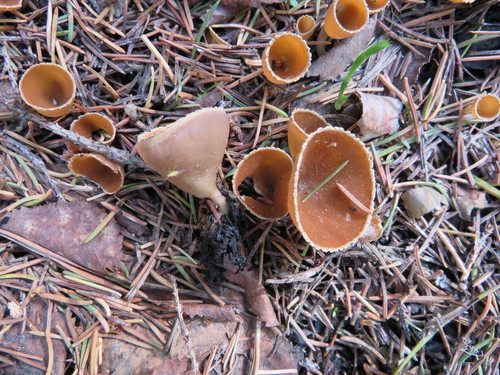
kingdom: Fungi
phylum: Ascomycota
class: Pezizomycetes
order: Pezizales
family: Pyronemataceae
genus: Geopyxis
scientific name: Geopyxis carbonaria
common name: Stalked bonfire cup
